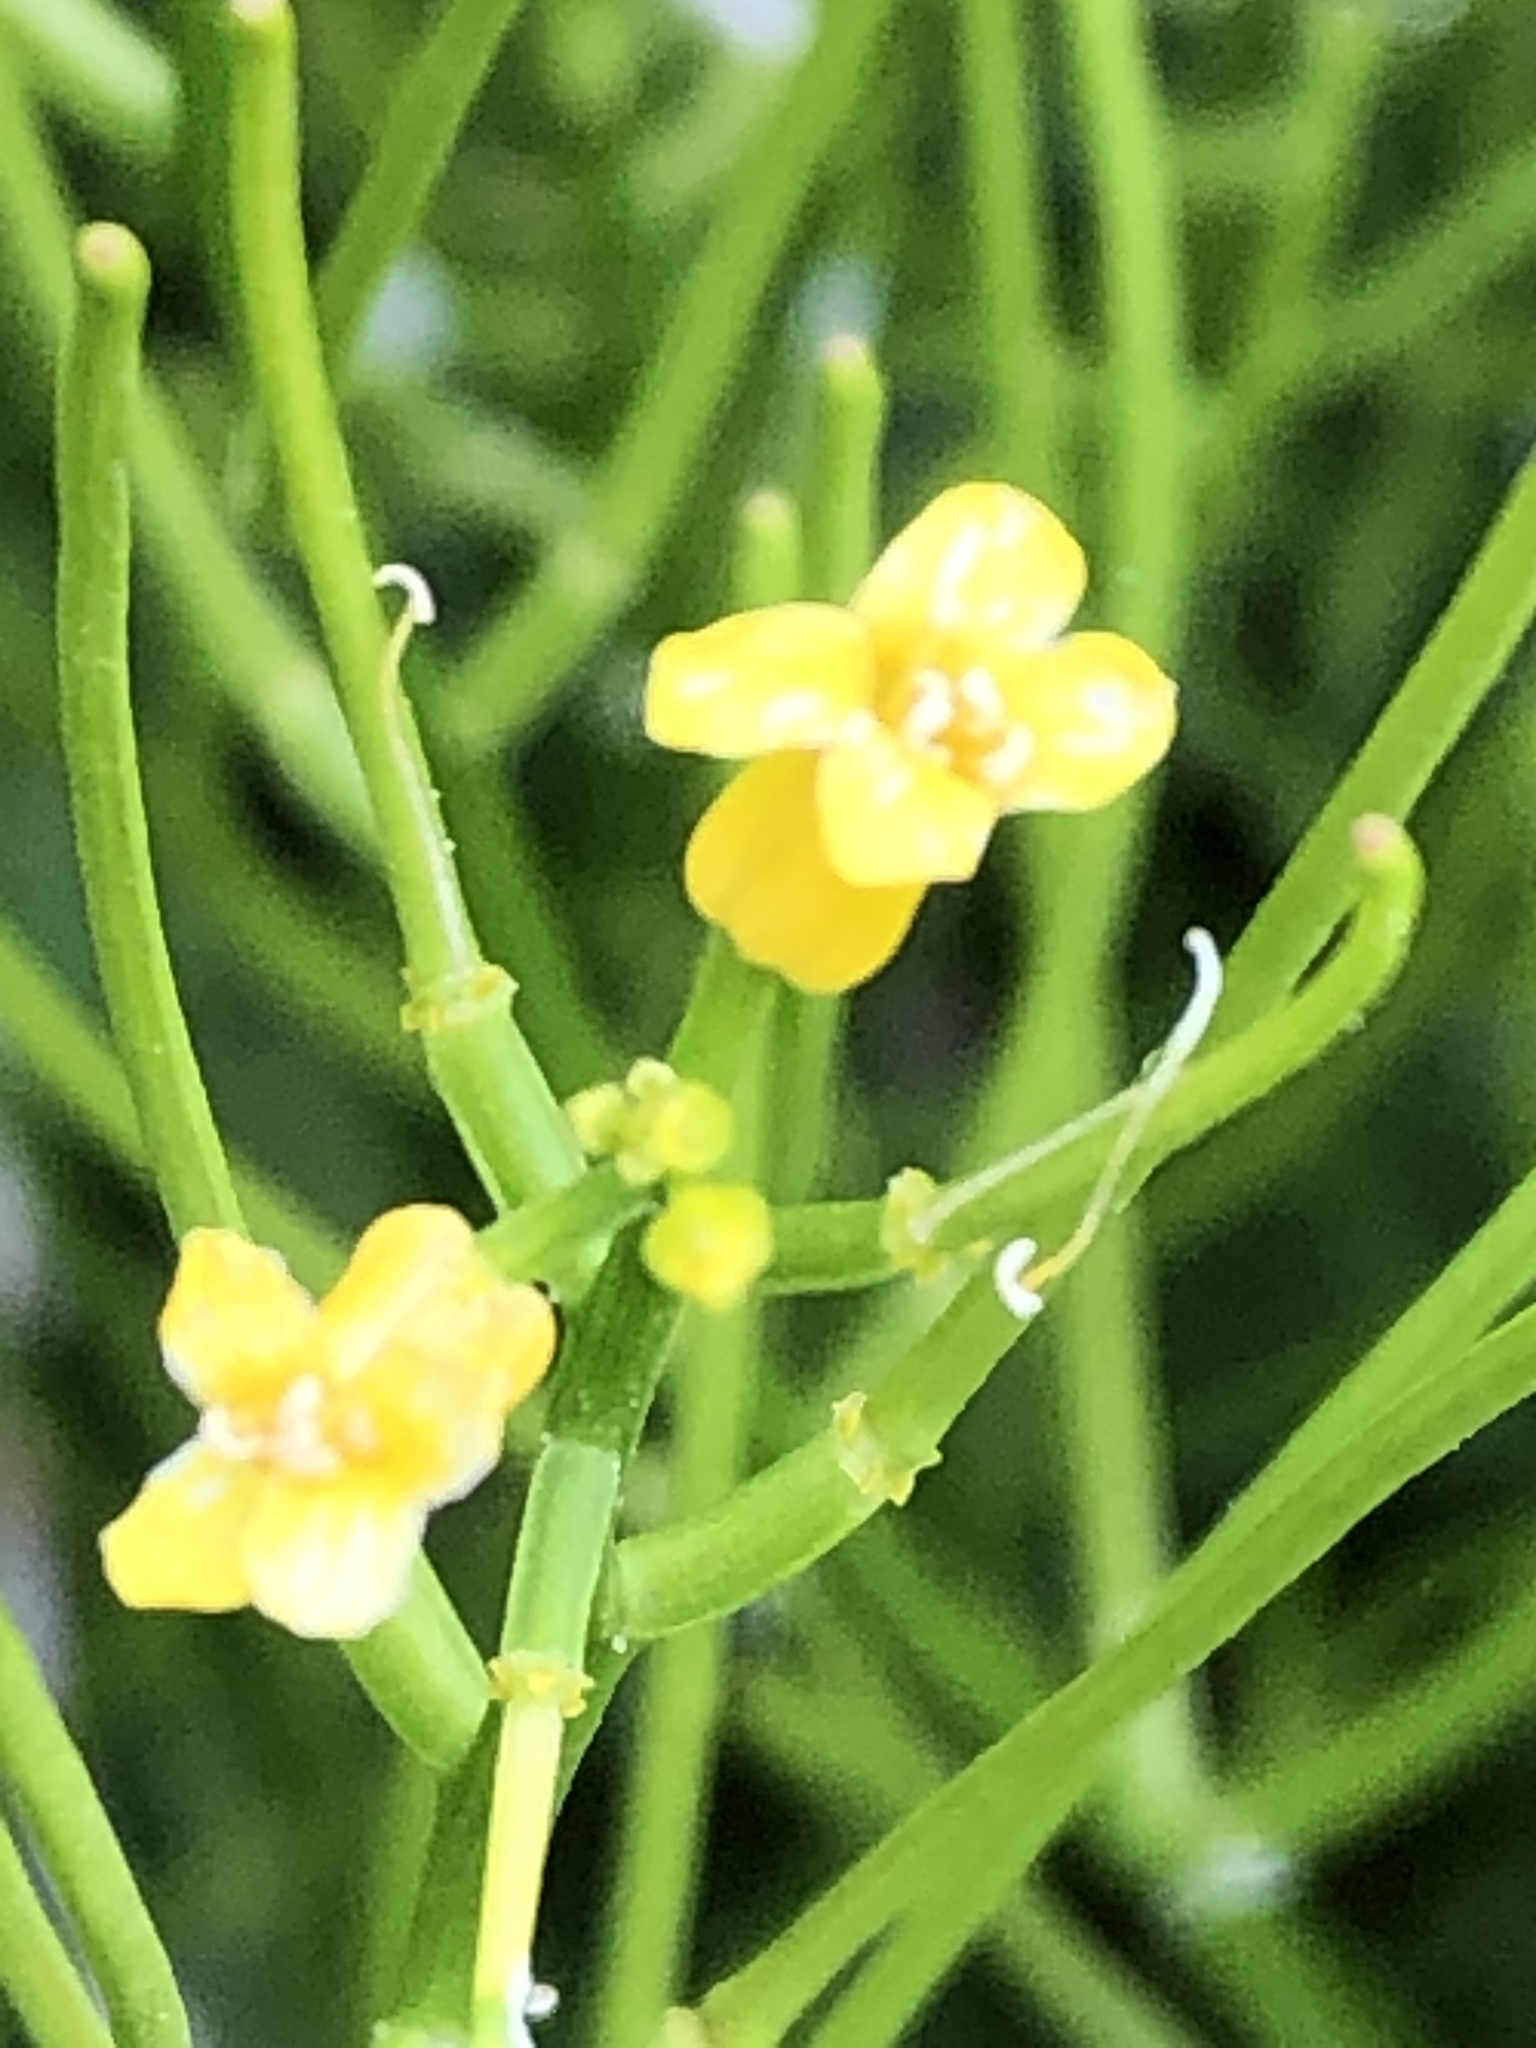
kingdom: Plantae
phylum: Tracheophyta
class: Magnoliopsida
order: Brassicales
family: Brassicaceae
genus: Barbarea
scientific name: Barbarea vulgaris
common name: Cressy-greens
